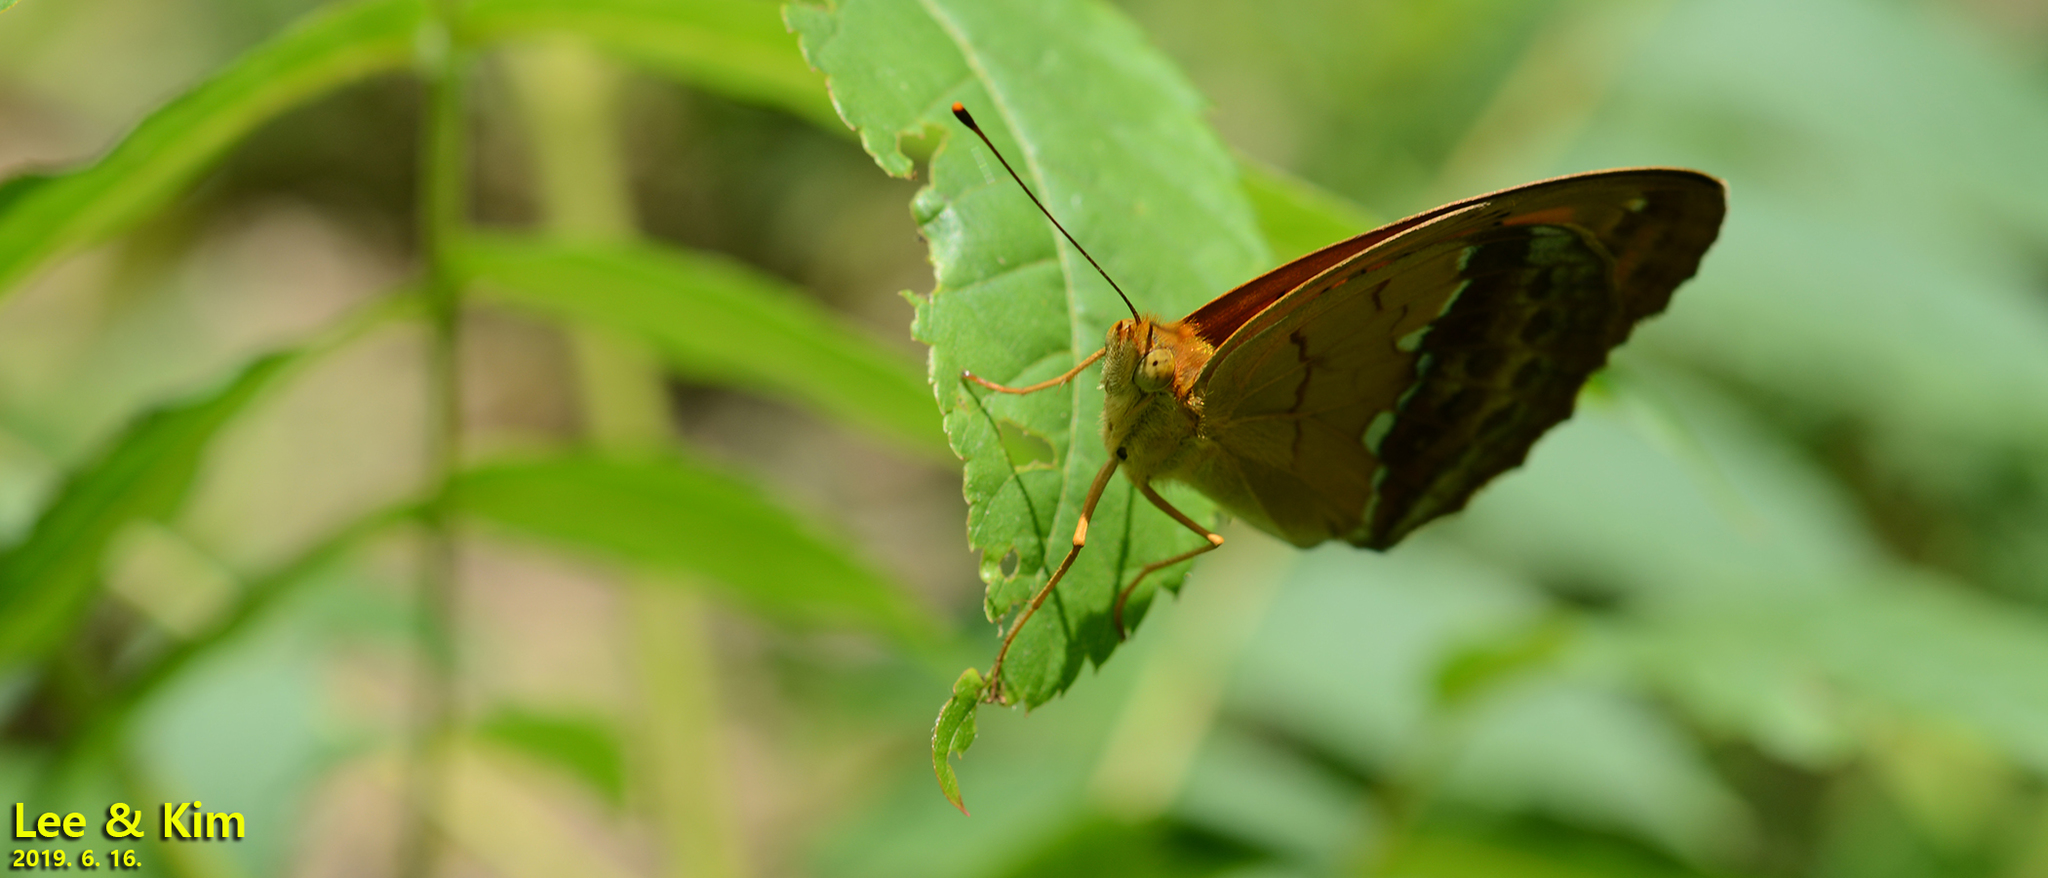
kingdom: Animalia
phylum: Arthropoda
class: Insecta
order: Lepidoptera
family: Nymphalidae
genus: Argyronome
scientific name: Argyronome laodice
